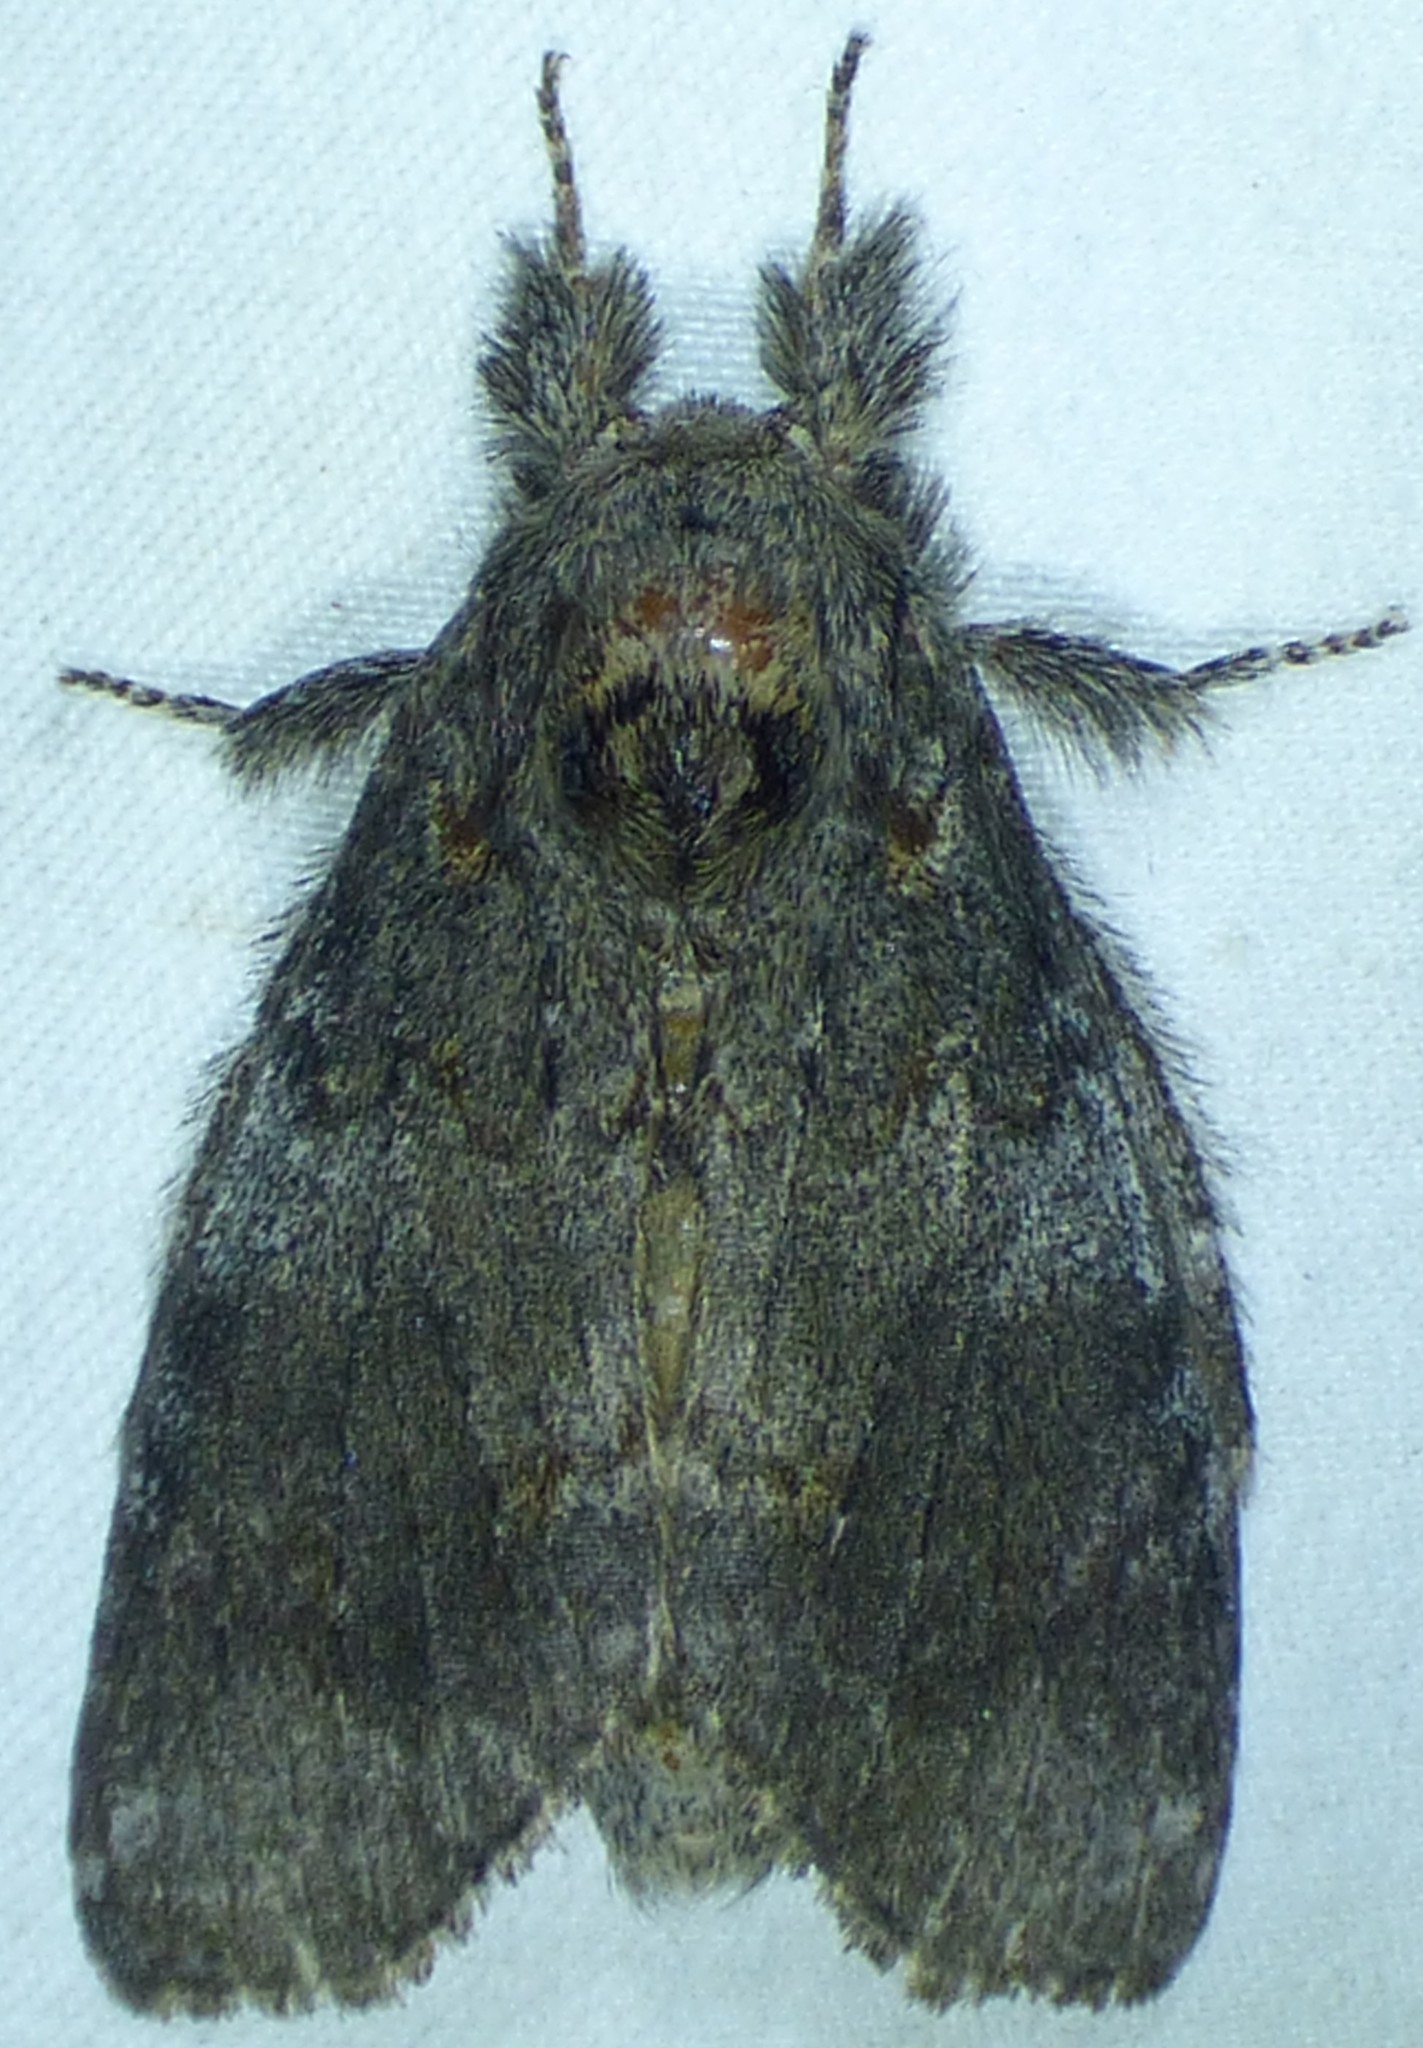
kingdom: Animalia
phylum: Arthropoda
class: Insecta
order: Lepidoptera
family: Notodontidae
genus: Peridea
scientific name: Peridea angulosa
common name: Angulose prominent
